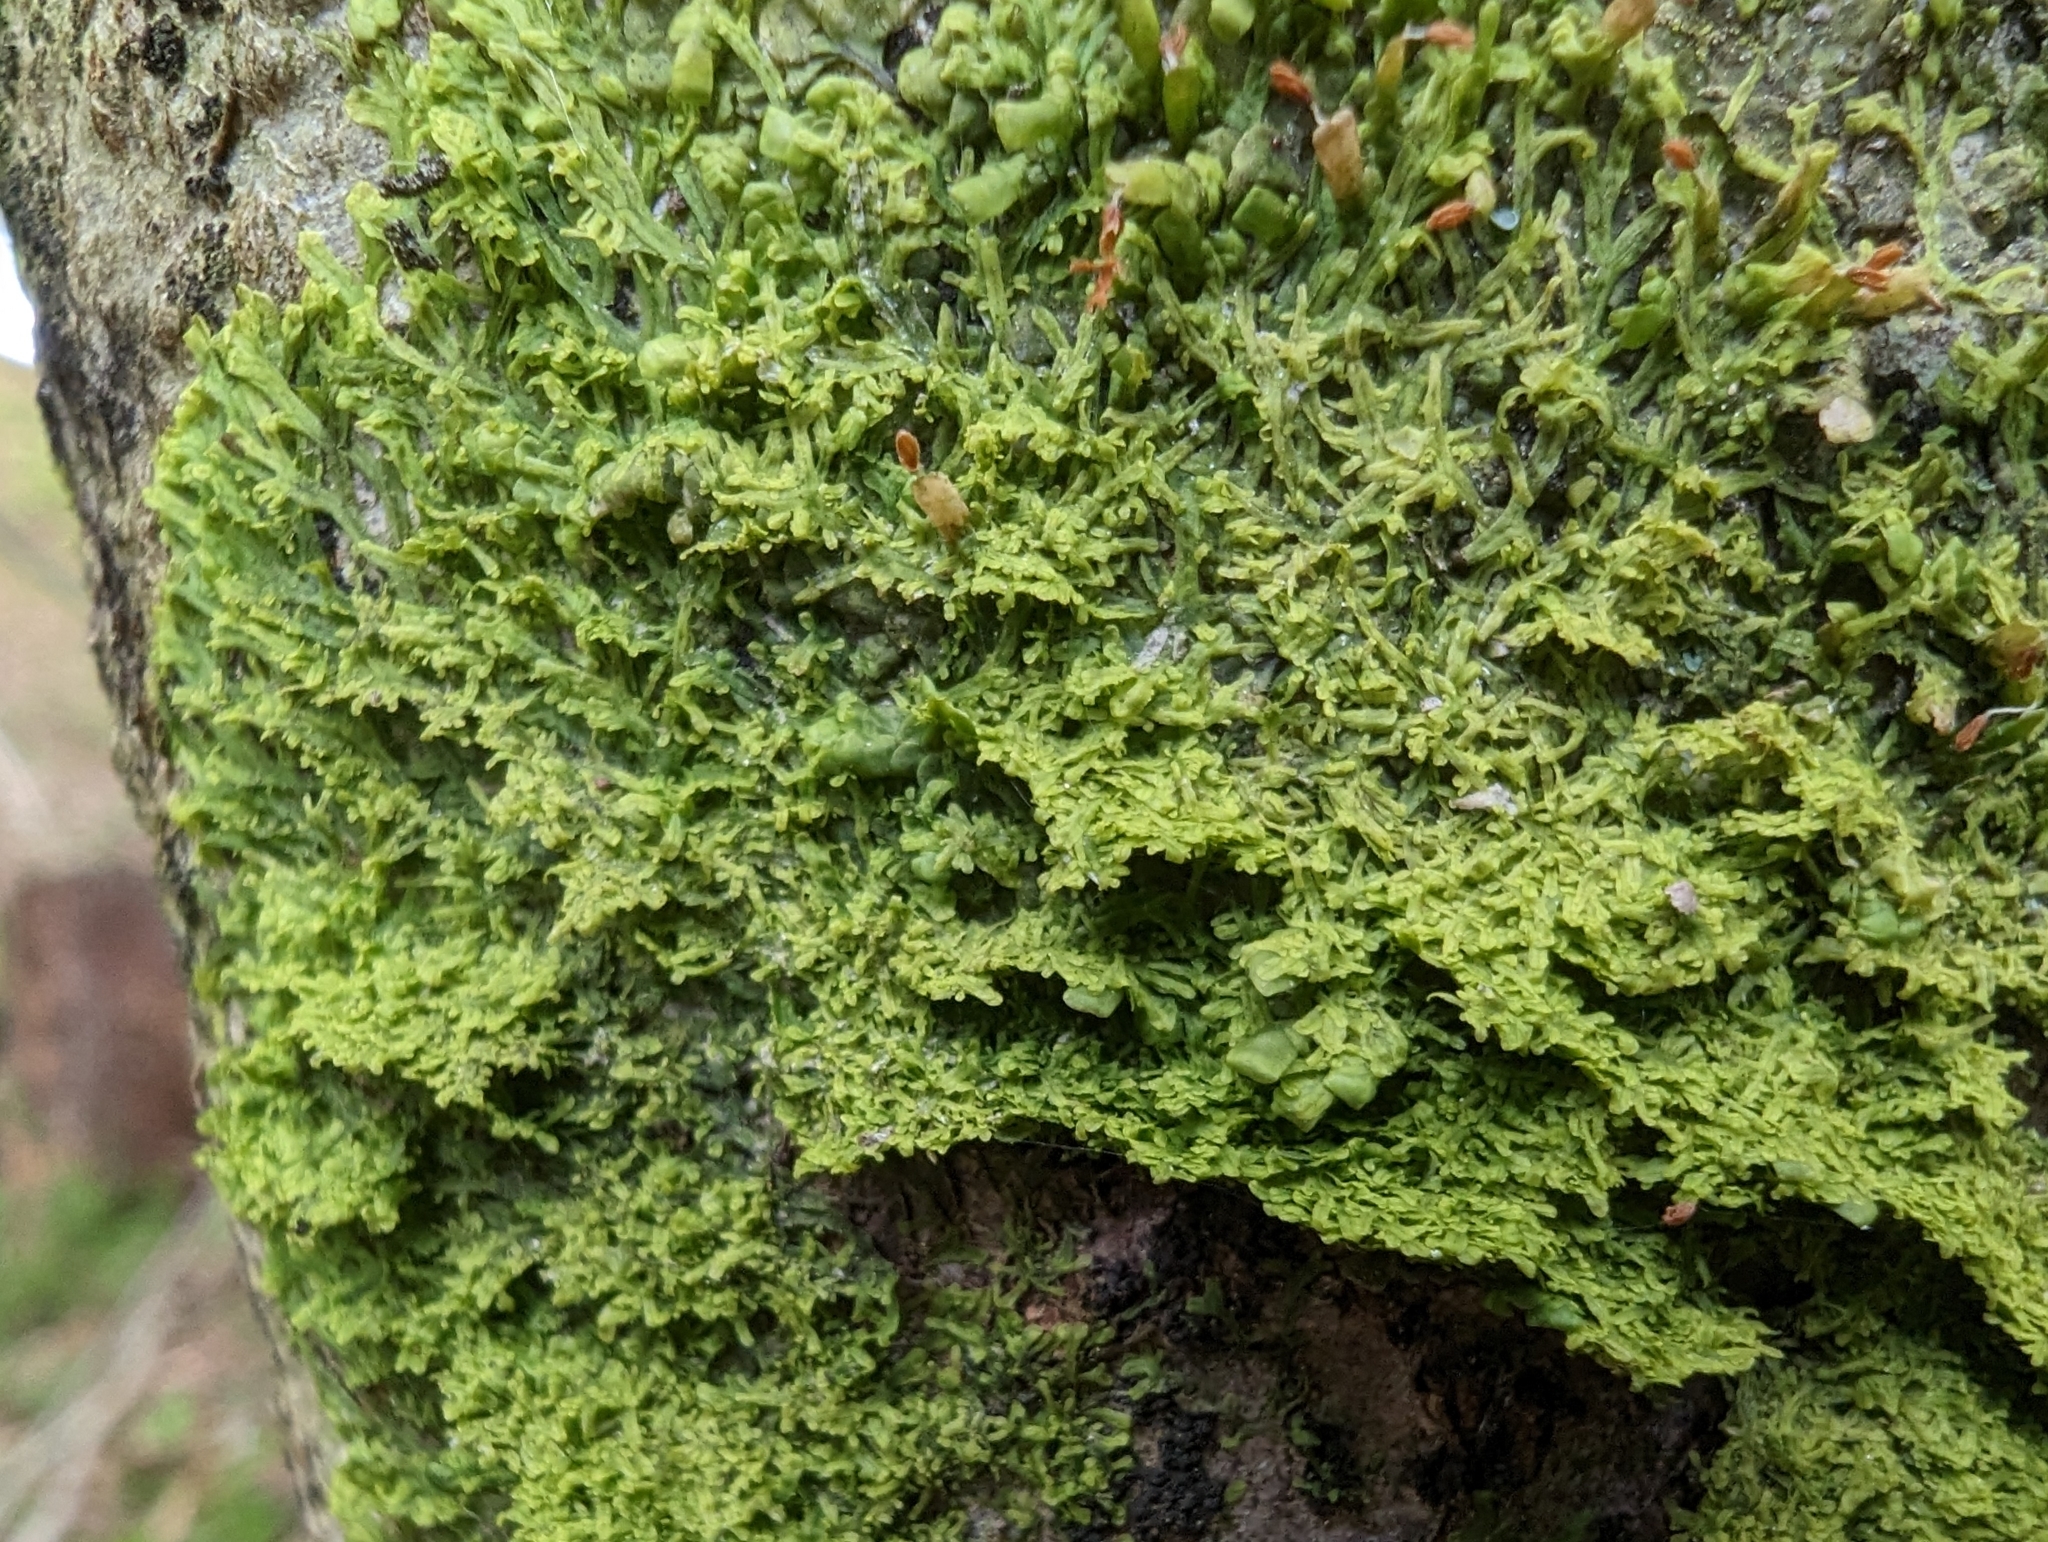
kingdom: Plantae
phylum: Marchantiophyta
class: Jungermanniopsida
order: Metzgeriales
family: Metzgeriaceae
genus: Metzgeria
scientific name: Metzgeria furcata
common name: Forked veilwort
